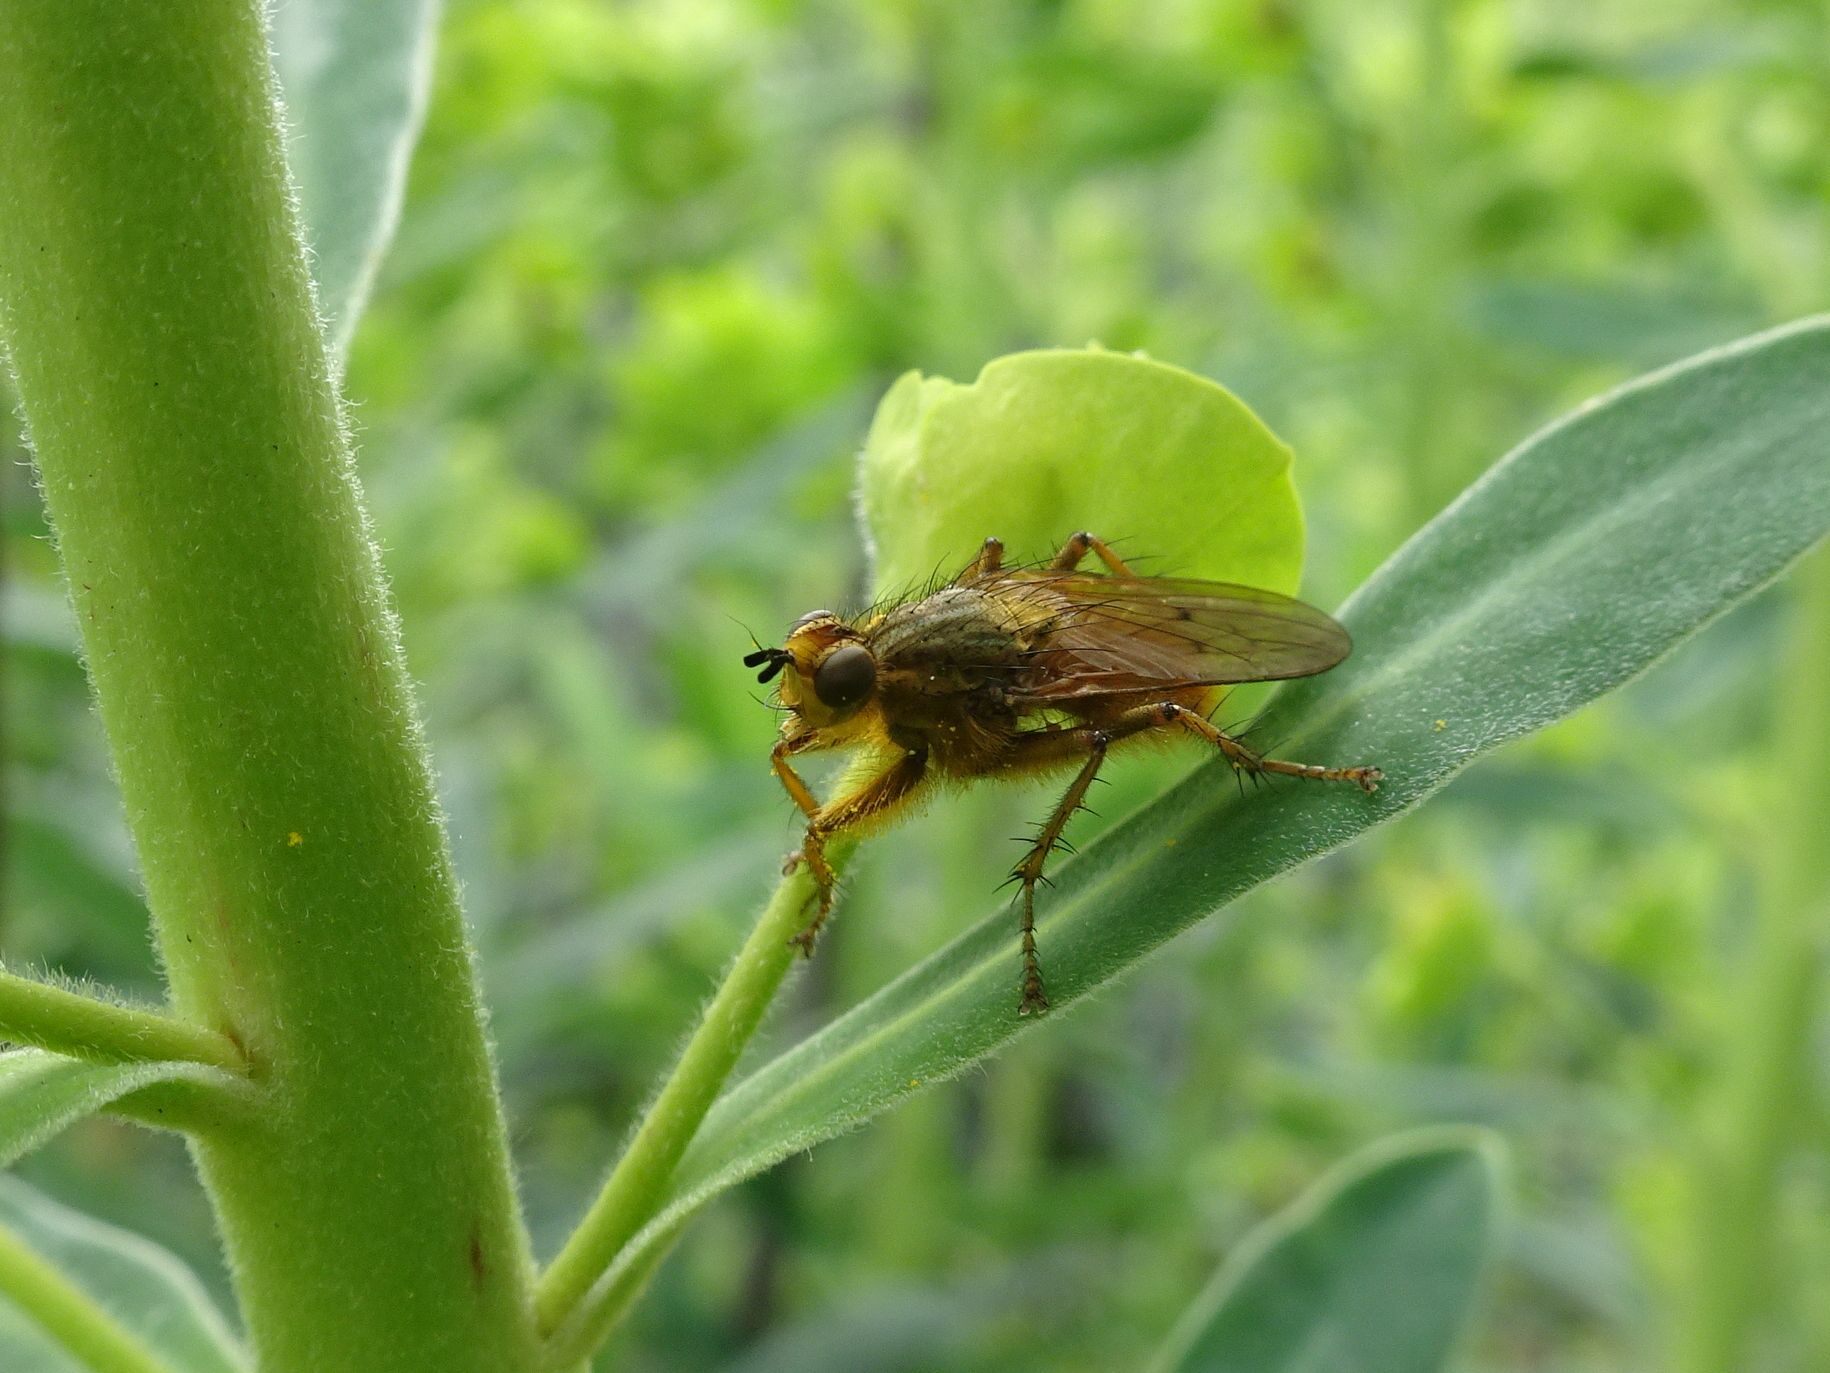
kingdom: Animalia
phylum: Arthropoda
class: Insecta
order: Diptera
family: Scathophagidae
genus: Scathophaga
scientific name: Scathophaga stercoraria
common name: Yellow dung fly
